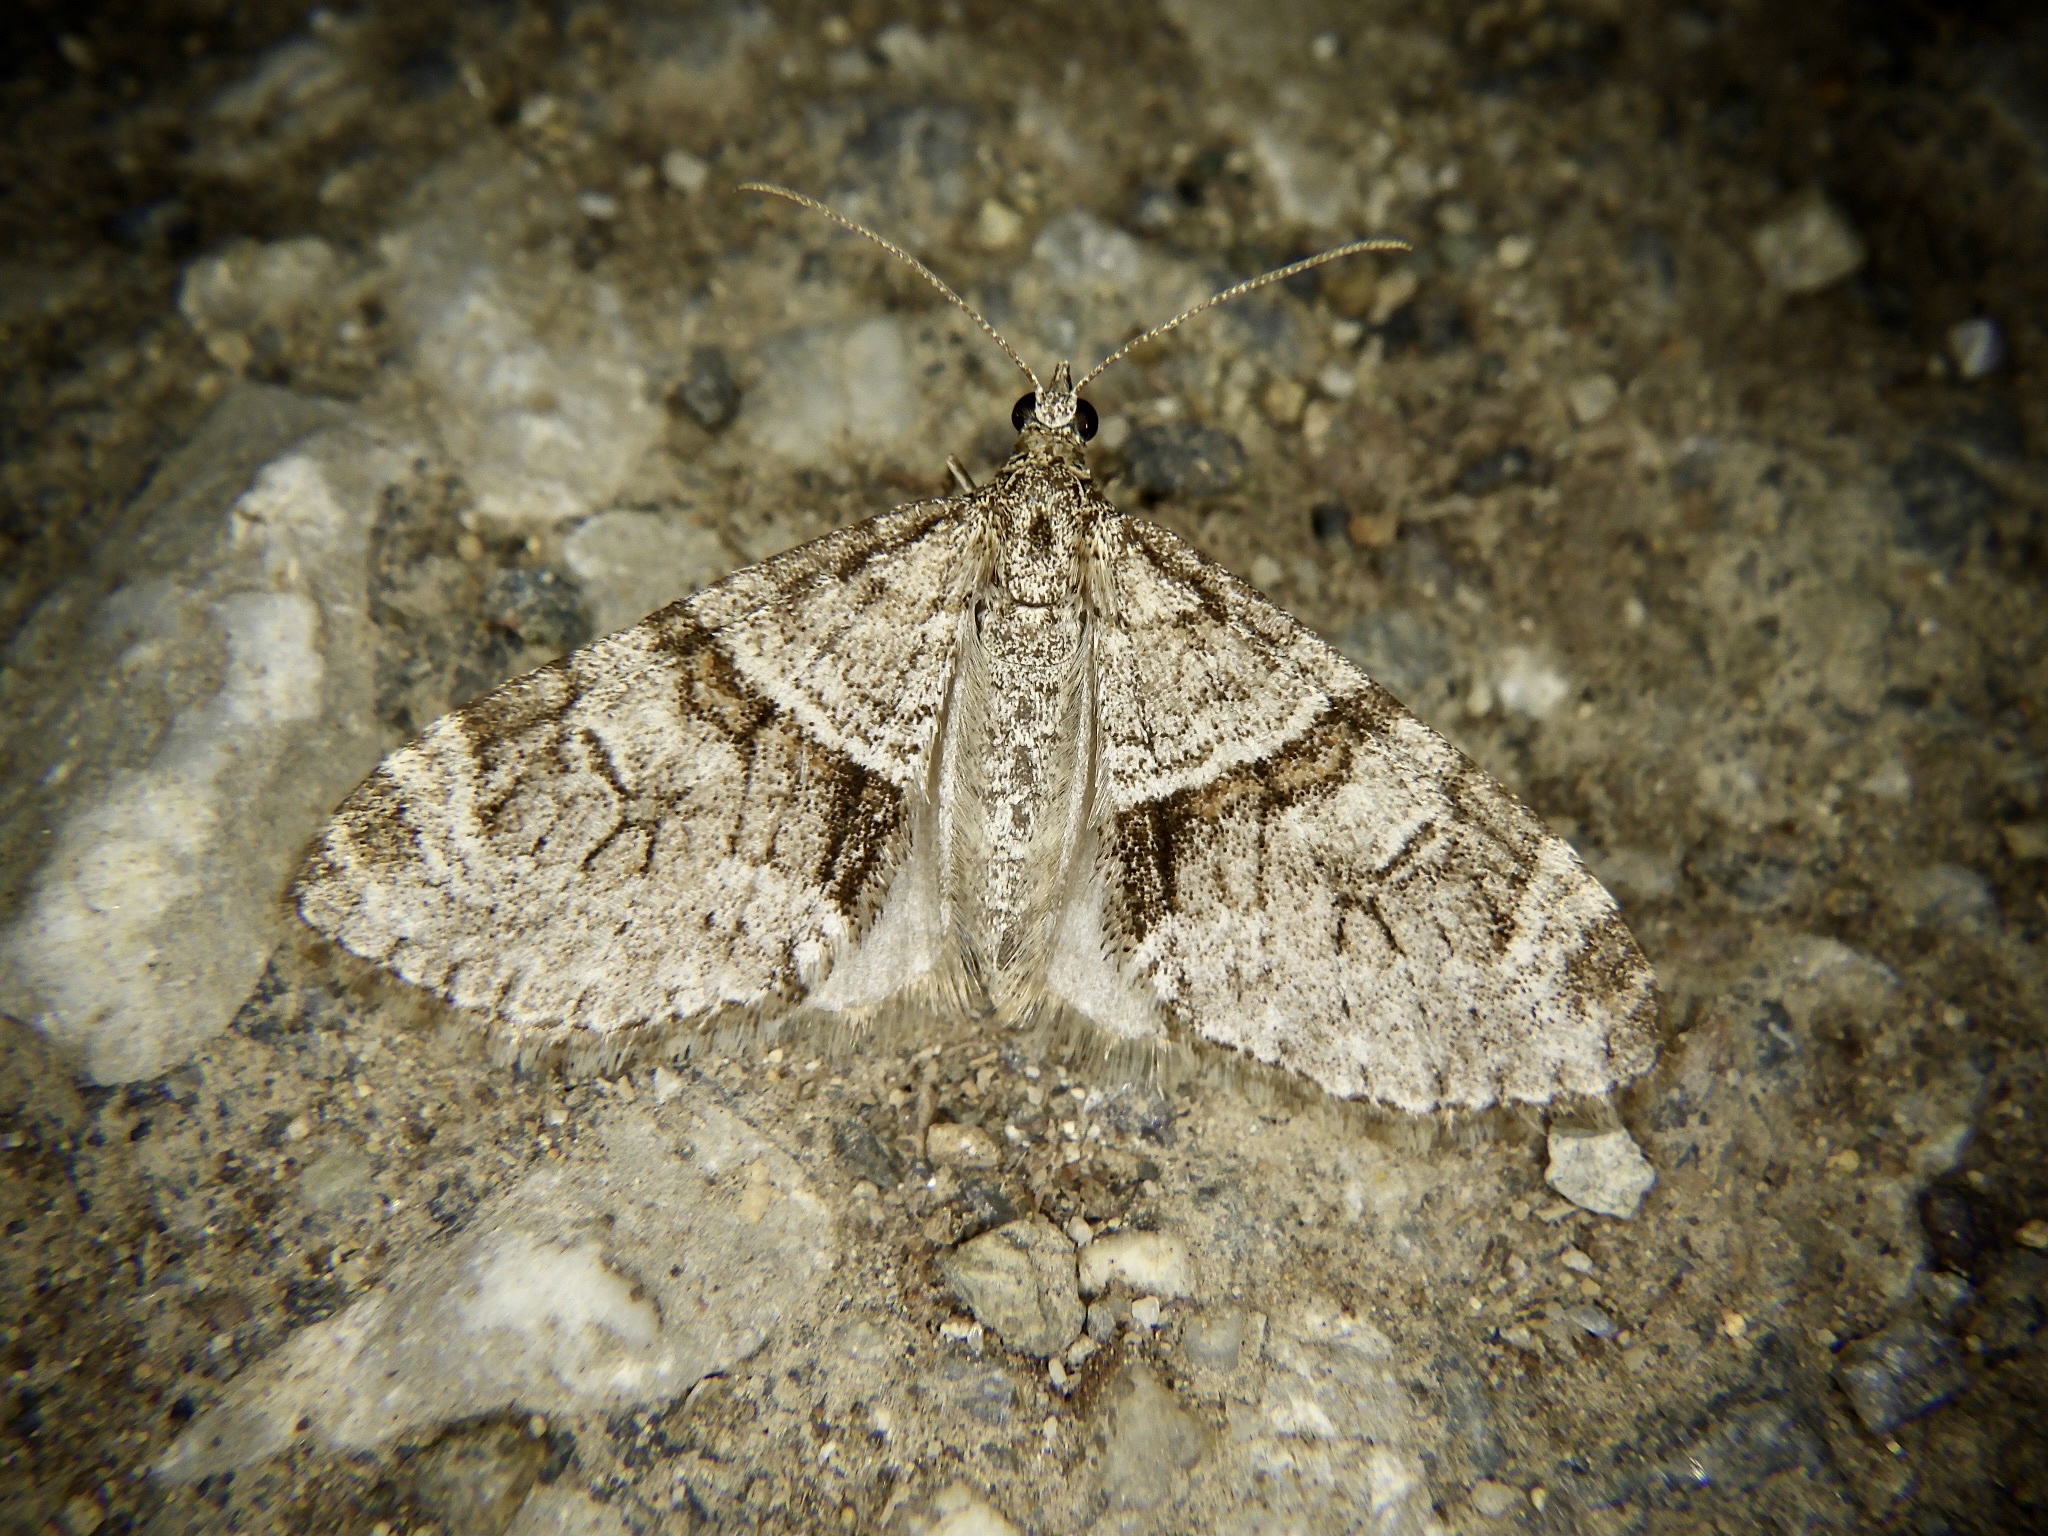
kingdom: Animalia
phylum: Arthropoda
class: Insecta
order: Lepidoptera
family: Geometridae
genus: Trichopteryx
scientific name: Trichopteryx terranea
